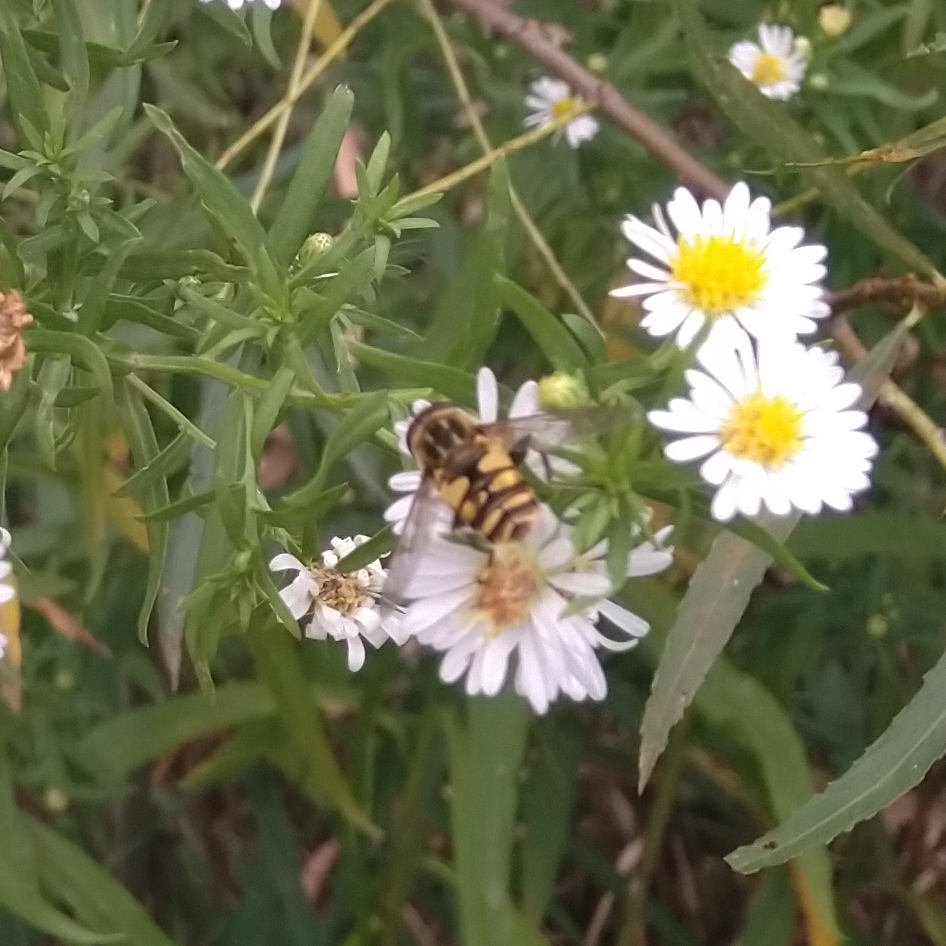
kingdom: Animalia
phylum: Arthropoda
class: Insecta
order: Diptera
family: Syrphidae
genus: Helophilus
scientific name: Helophilus fasciatus
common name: Narrow-headed marsh fly
